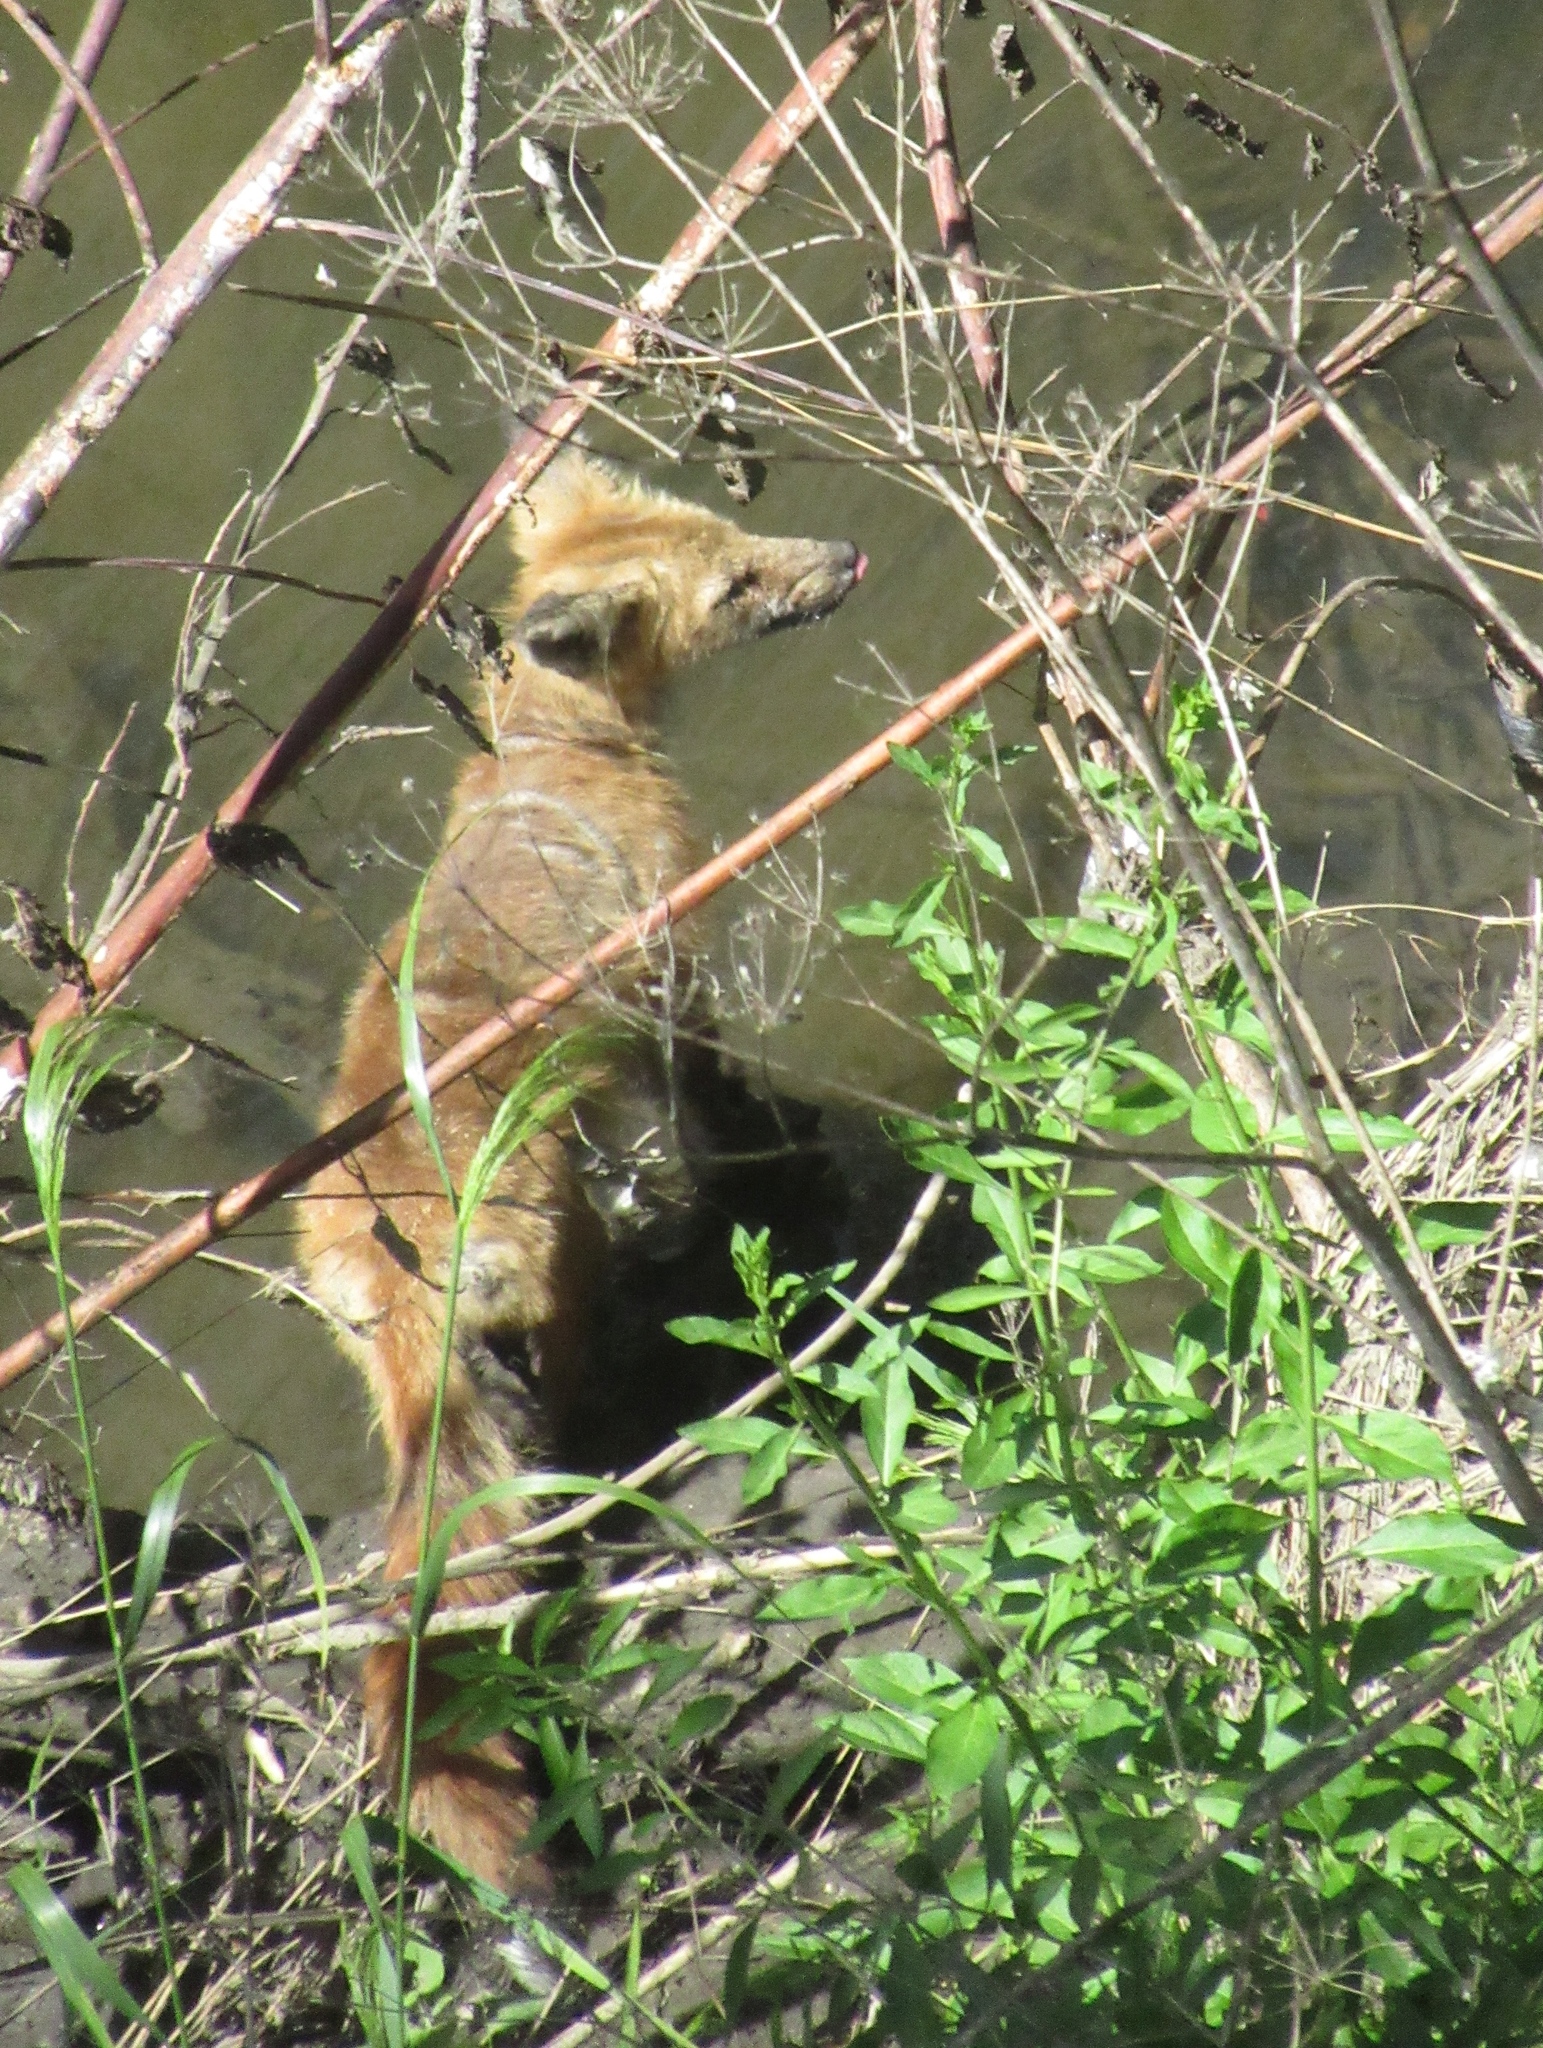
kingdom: Animalia
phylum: Chordata
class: Mammalia
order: Carnivora
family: Canidae
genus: Vulpes
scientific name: Vulpes vulpes
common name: Red fox
